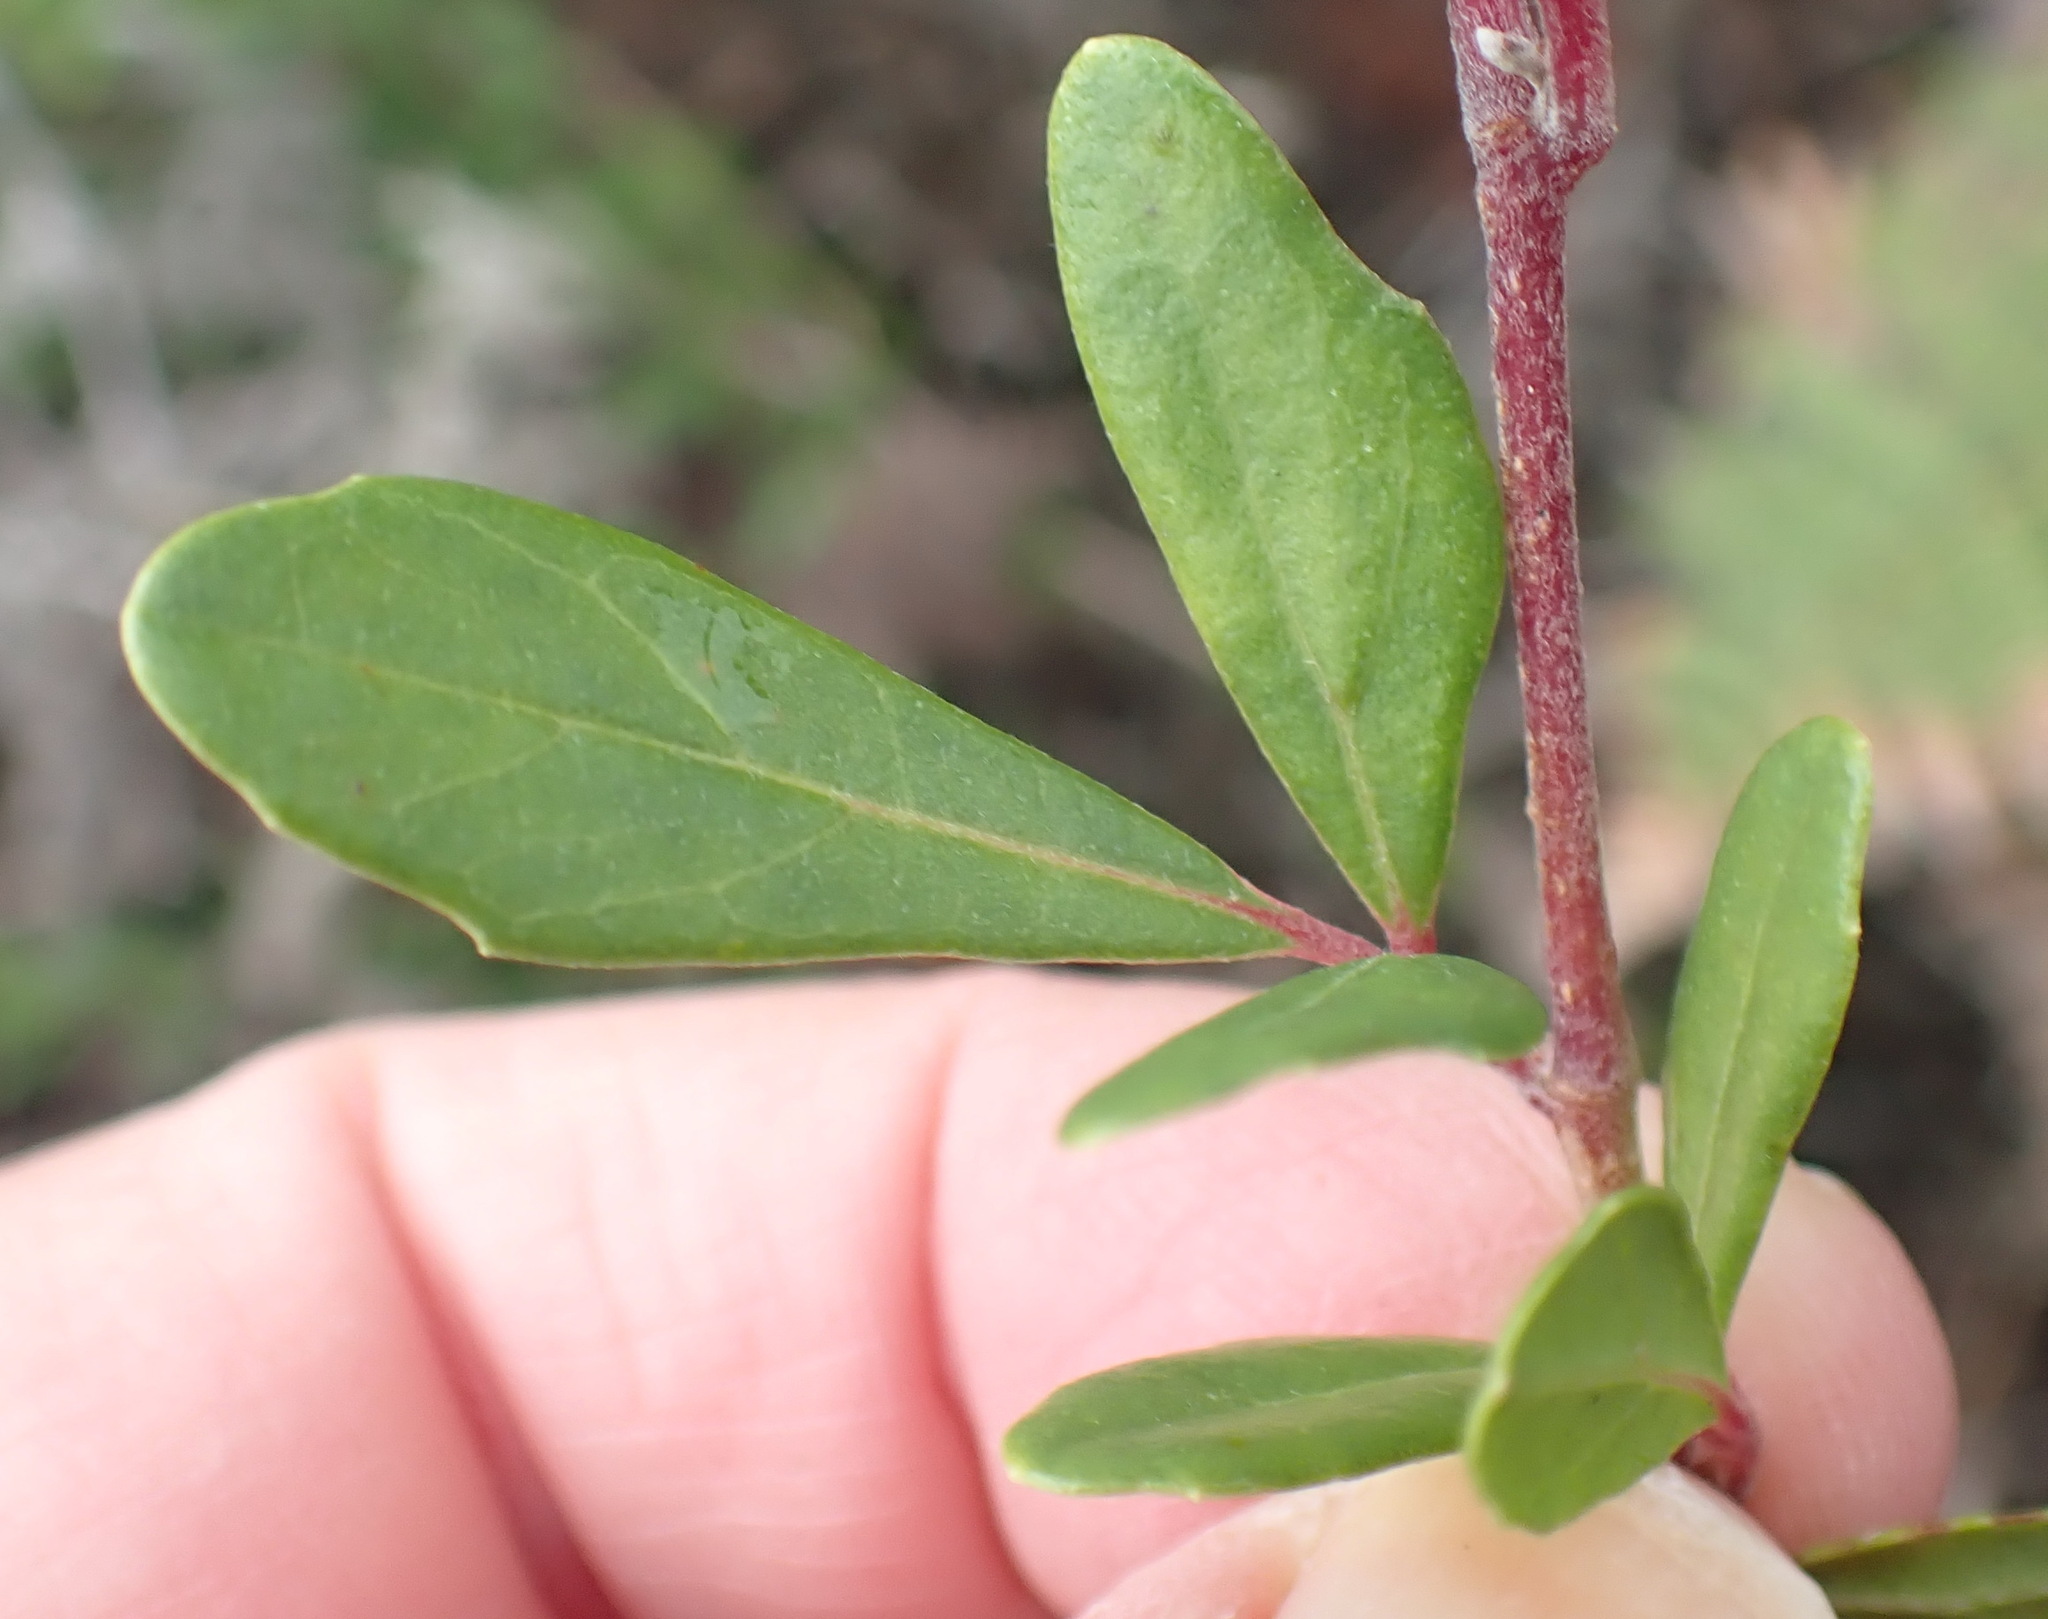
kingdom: Plantae
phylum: Tracheophyta
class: Magnoliopsida
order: Vitales
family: Vitaceae
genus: Rhoicissus
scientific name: Rhoicissus tridentata
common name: Common forest grape
